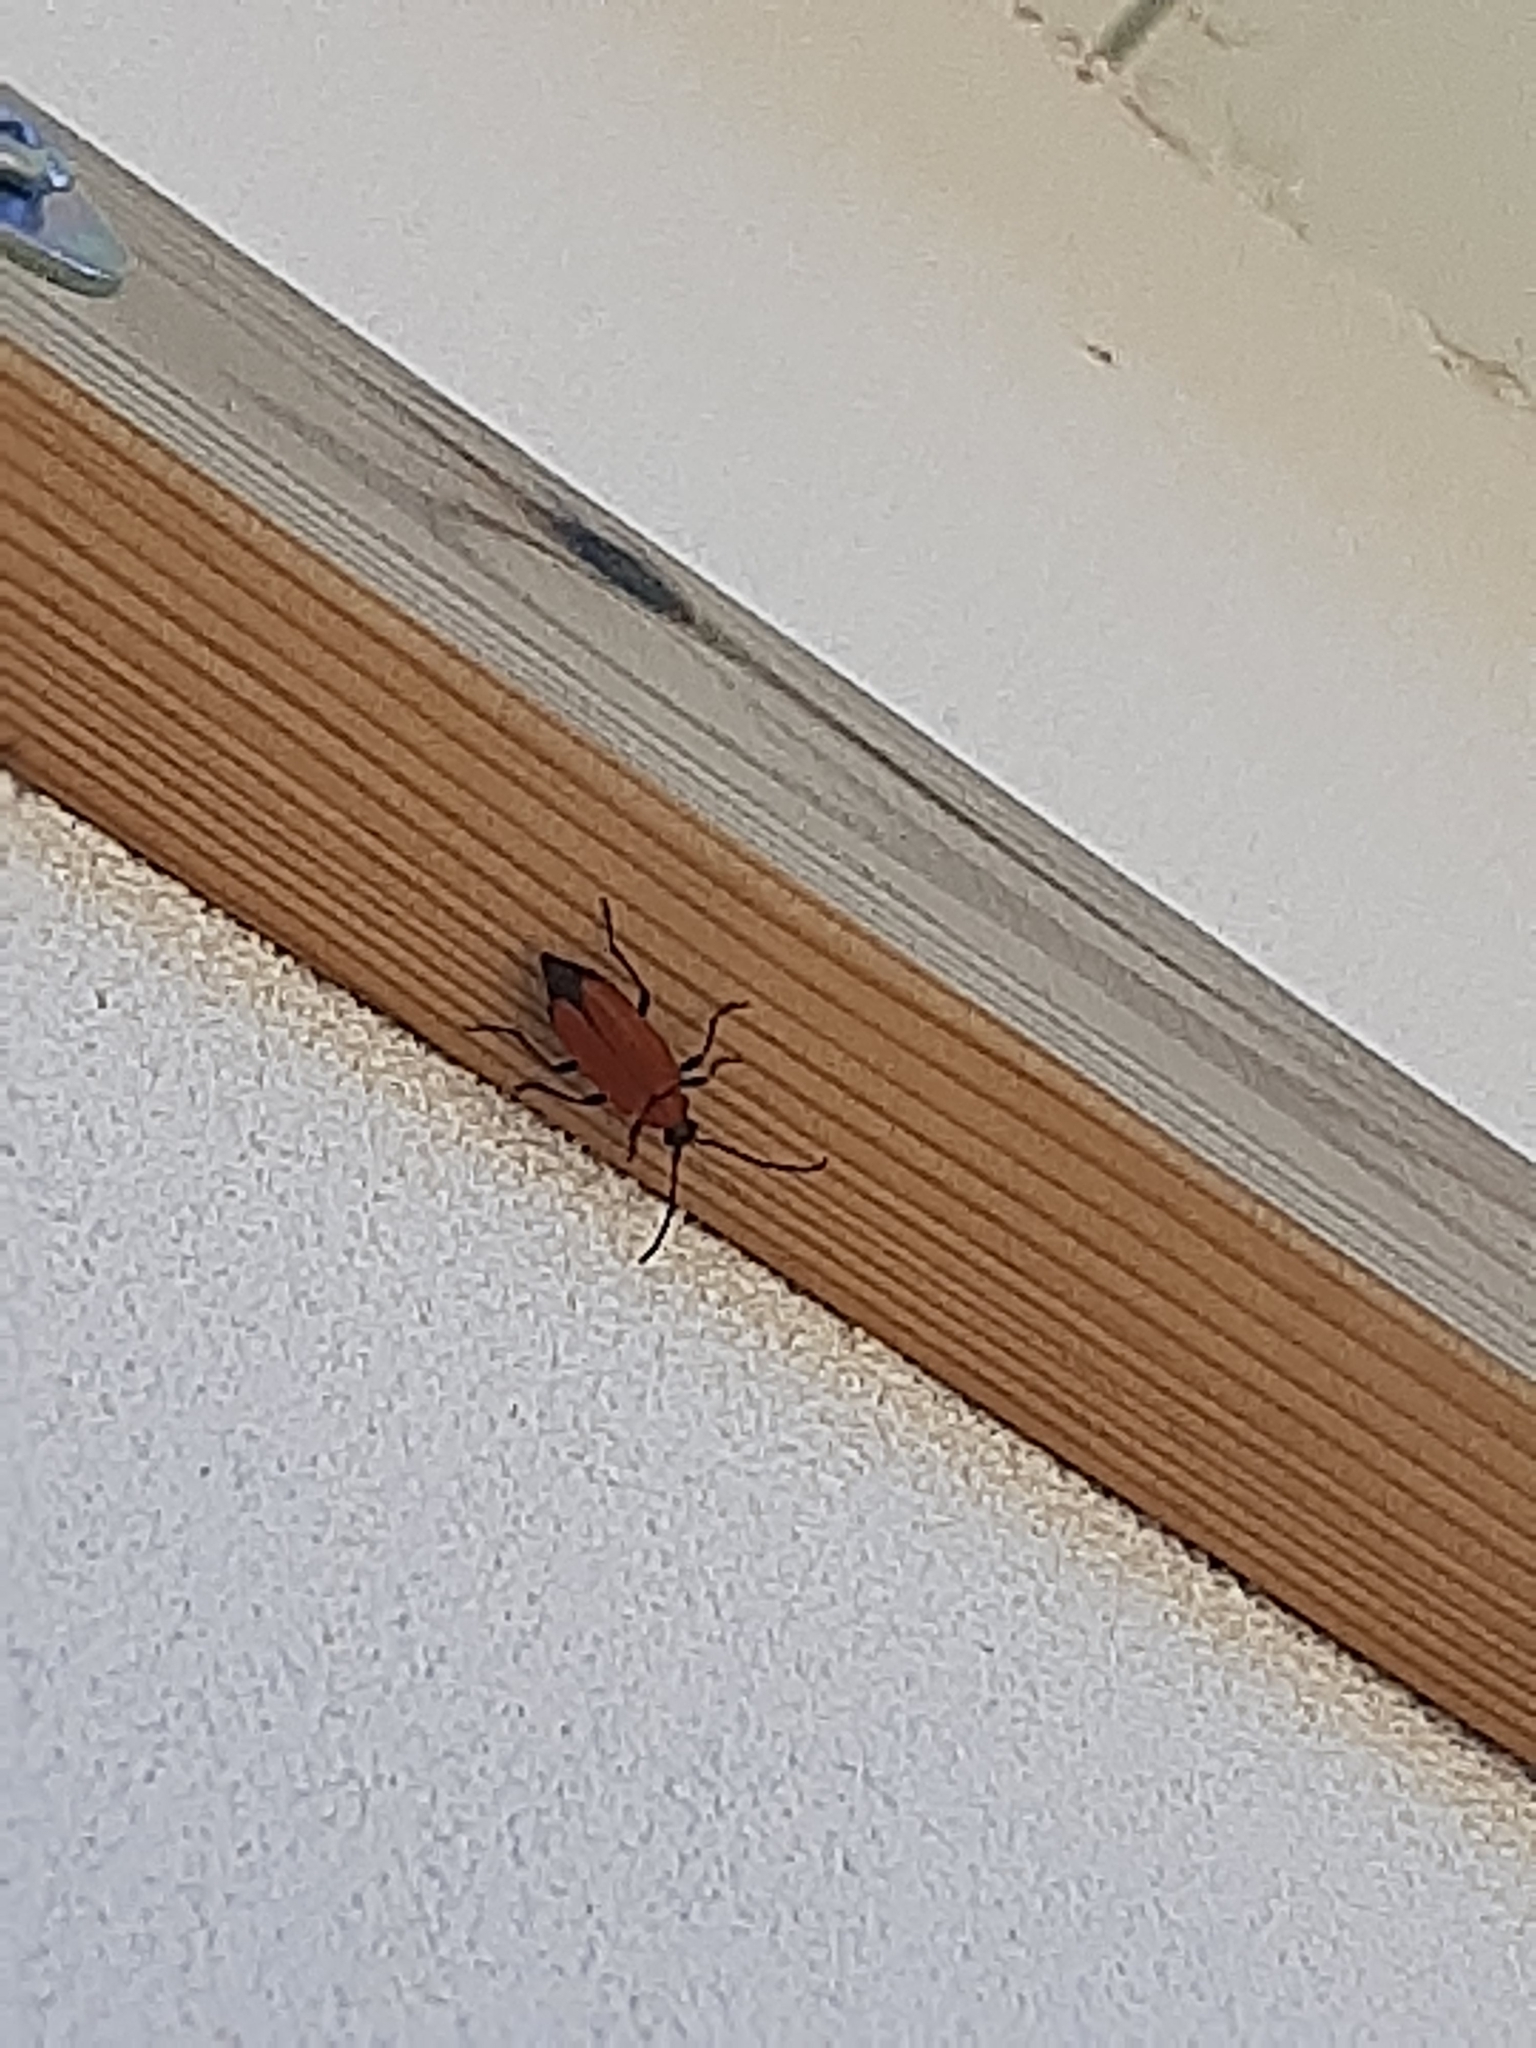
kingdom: Animalia
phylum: Arthropoda
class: Insecta
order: Coleoptera
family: Cerambycidae
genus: Stictoleptura
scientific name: Stictoleptura fontenayi
